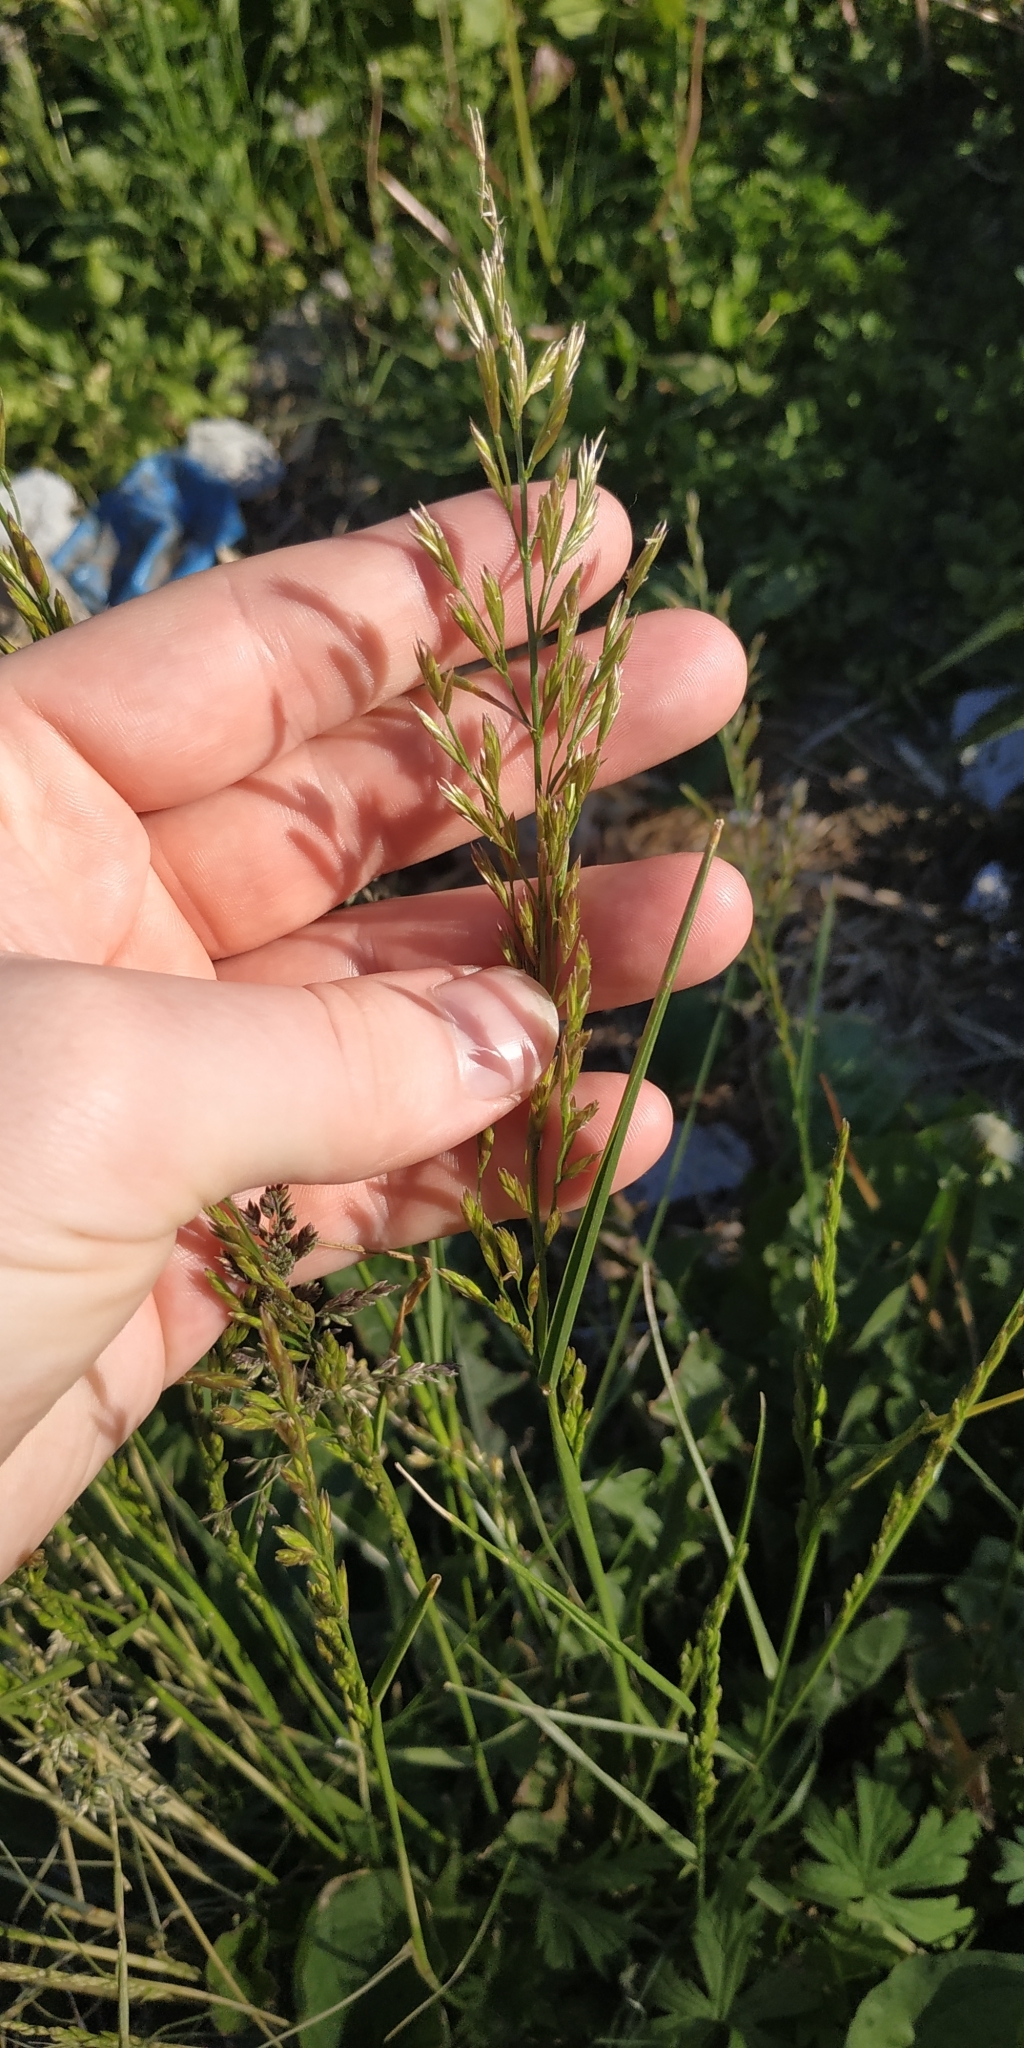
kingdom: Plantae
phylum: Tracheophyta
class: Liliopsida
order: Poales
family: Poaceae
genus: Lolium
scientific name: Lolium pratense
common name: Dover grass
